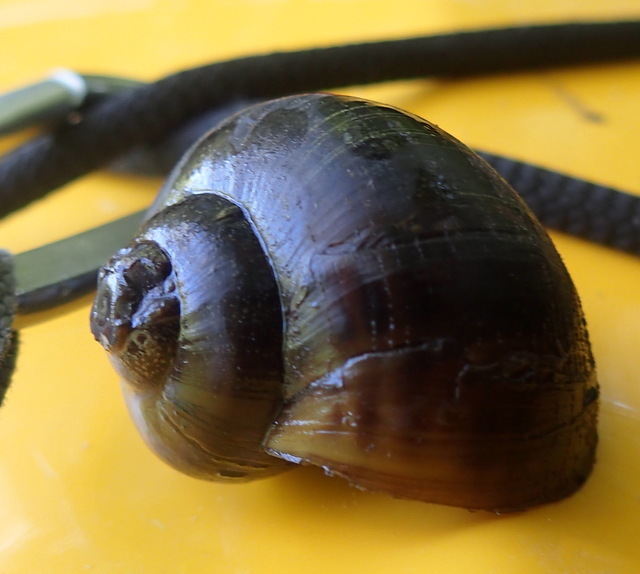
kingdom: Animalia
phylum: Mollusca
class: Gastropoda
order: Architaenioglossa
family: Ampullariidae
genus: Pomacea
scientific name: Pomacea paludosa
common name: Florida applesnail
